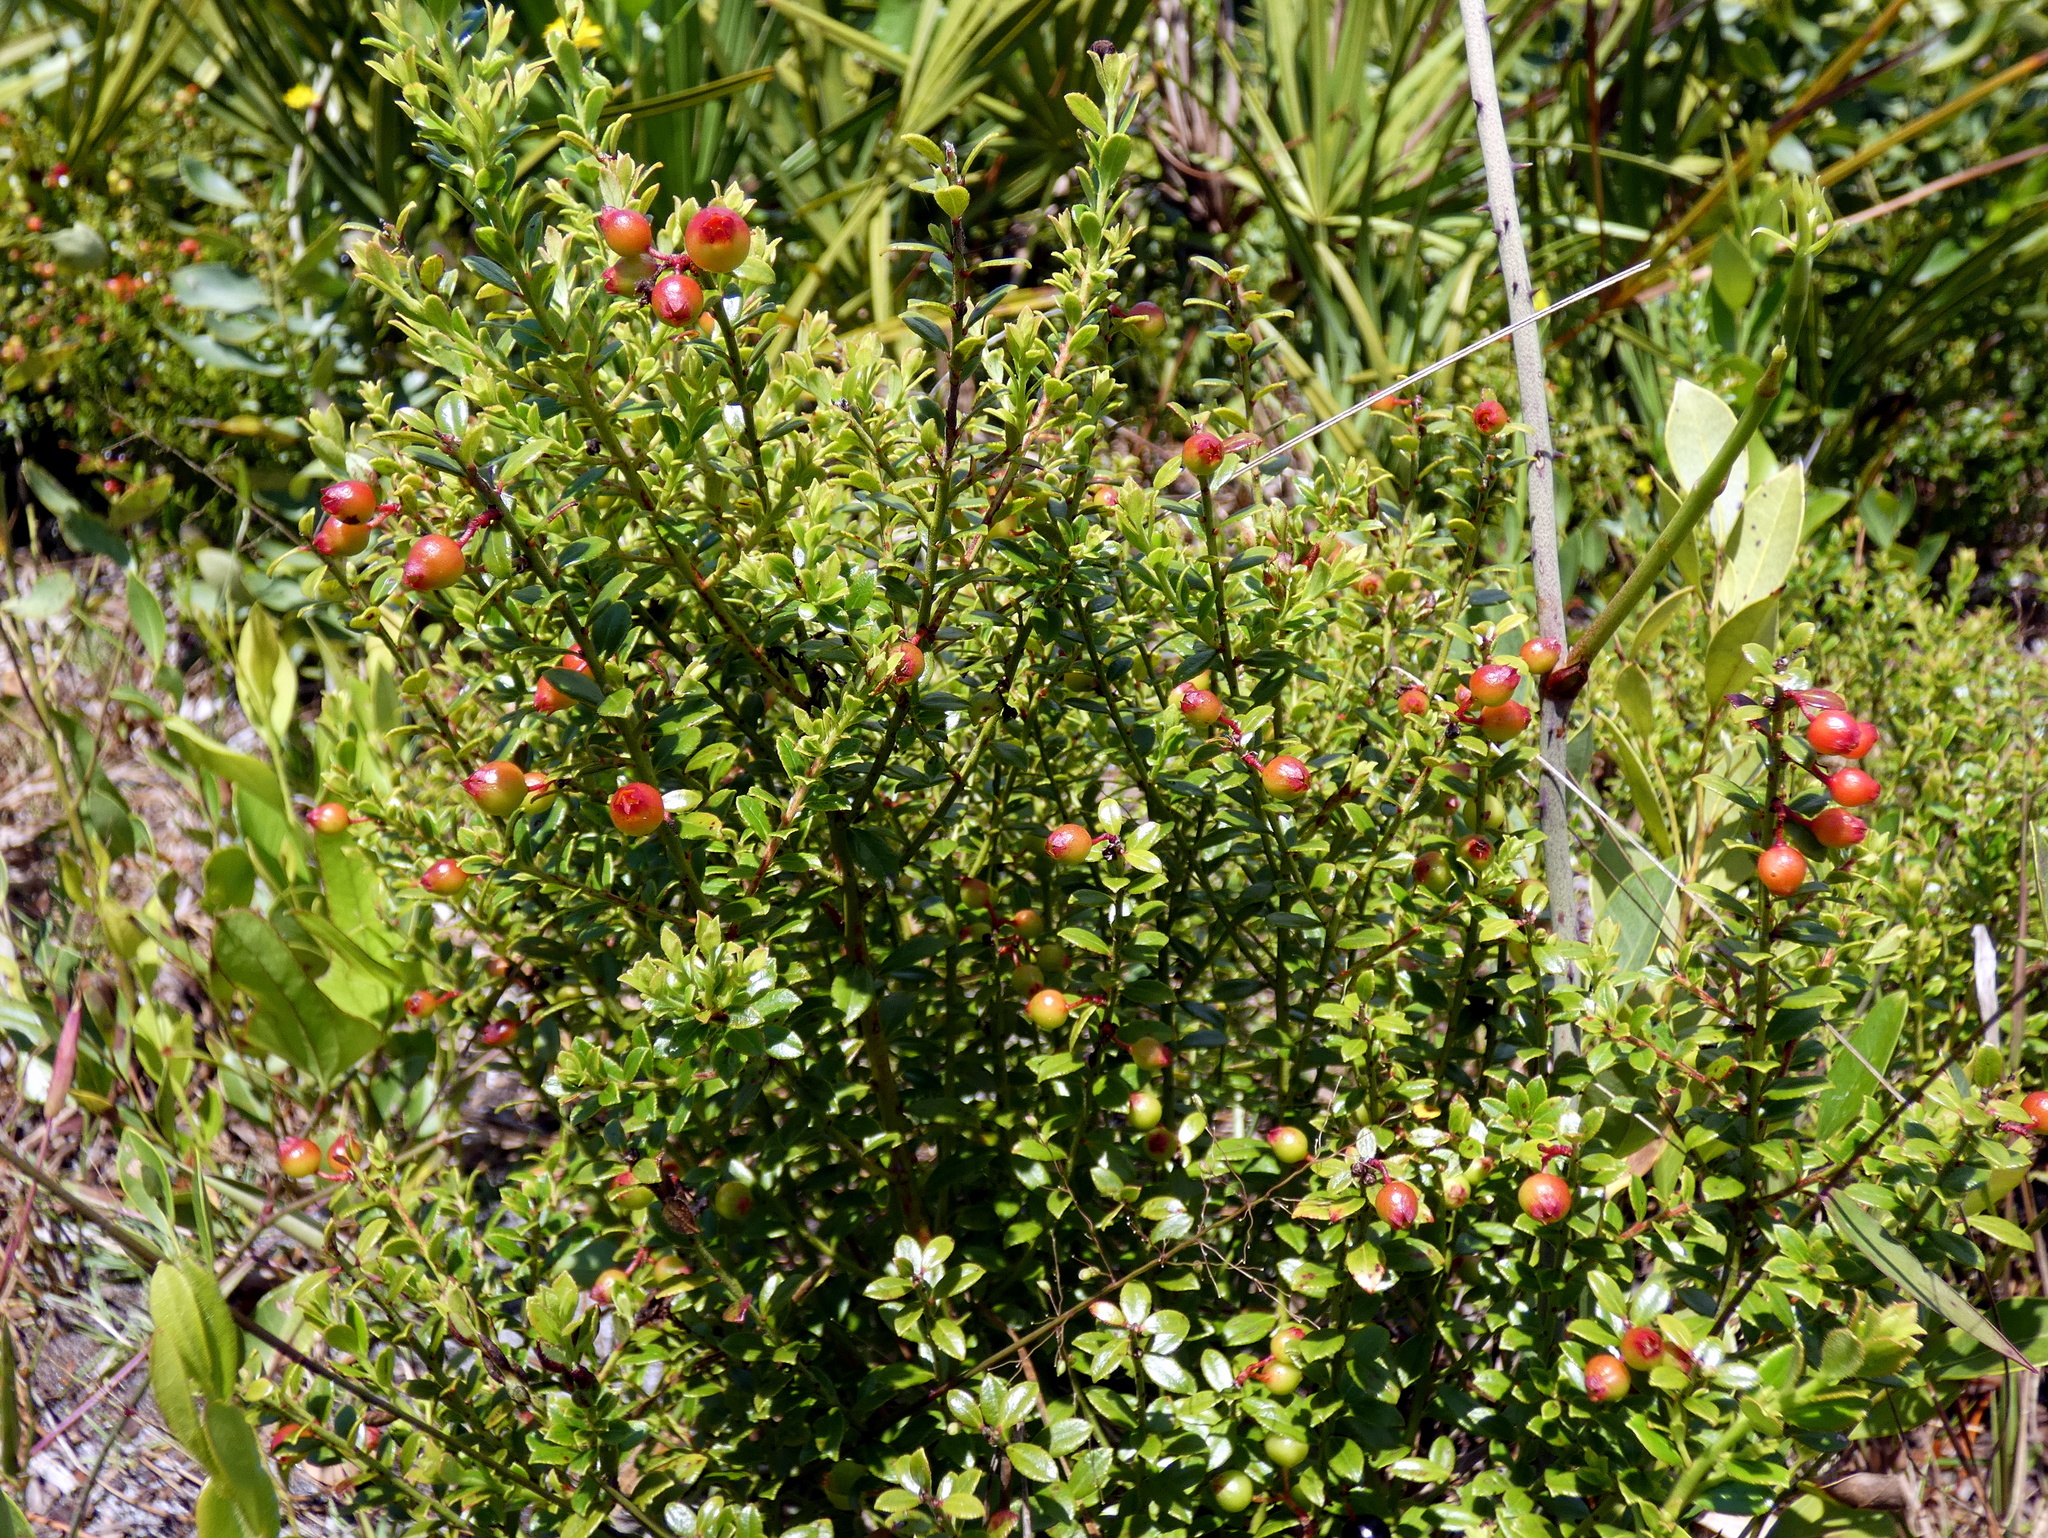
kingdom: Plantae
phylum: Tracheophyta
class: Magnoliopsida
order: Ericales
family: Ericaceae
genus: Vaccinium
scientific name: Vaccinium myrsinites
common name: Evergreen blueberry
